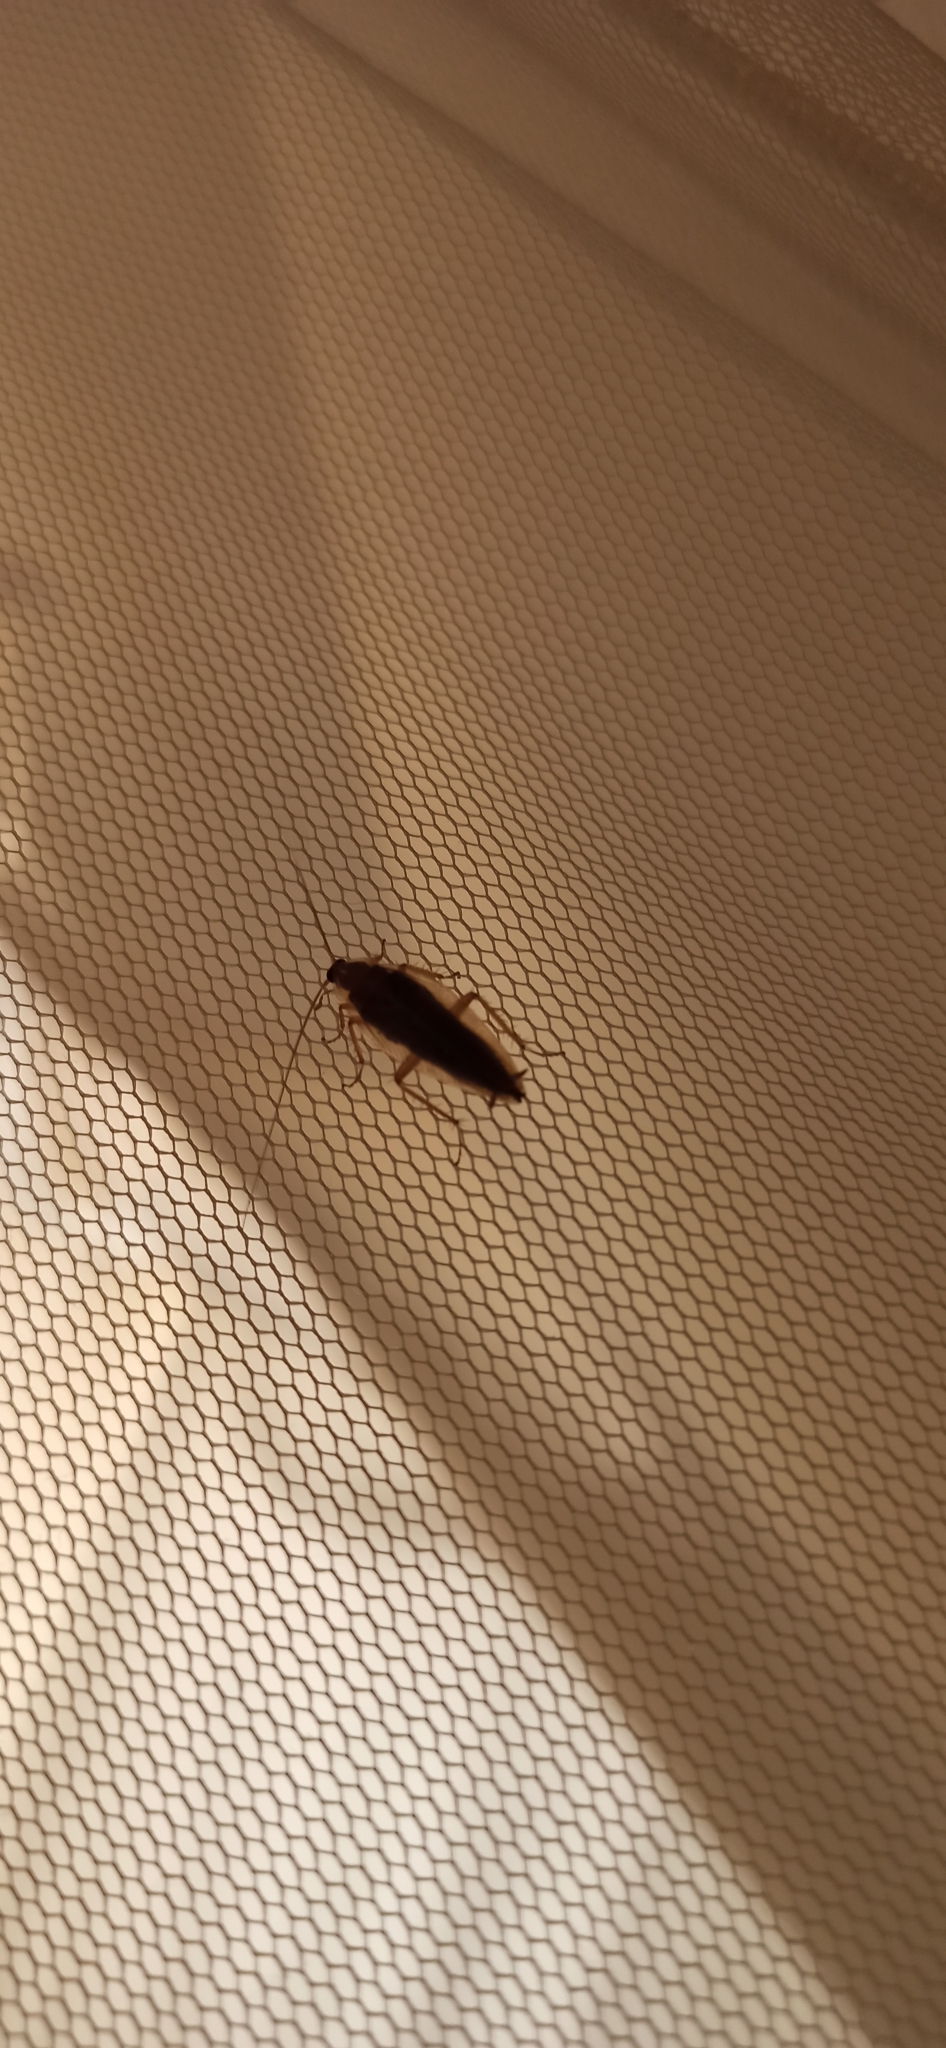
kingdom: Animalia
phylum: Arthropoda
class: Insecta
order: Blattodea
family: Ectobiidae
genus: Ectobius
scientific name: Ectobius vittiventris
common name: Garden cockroach
